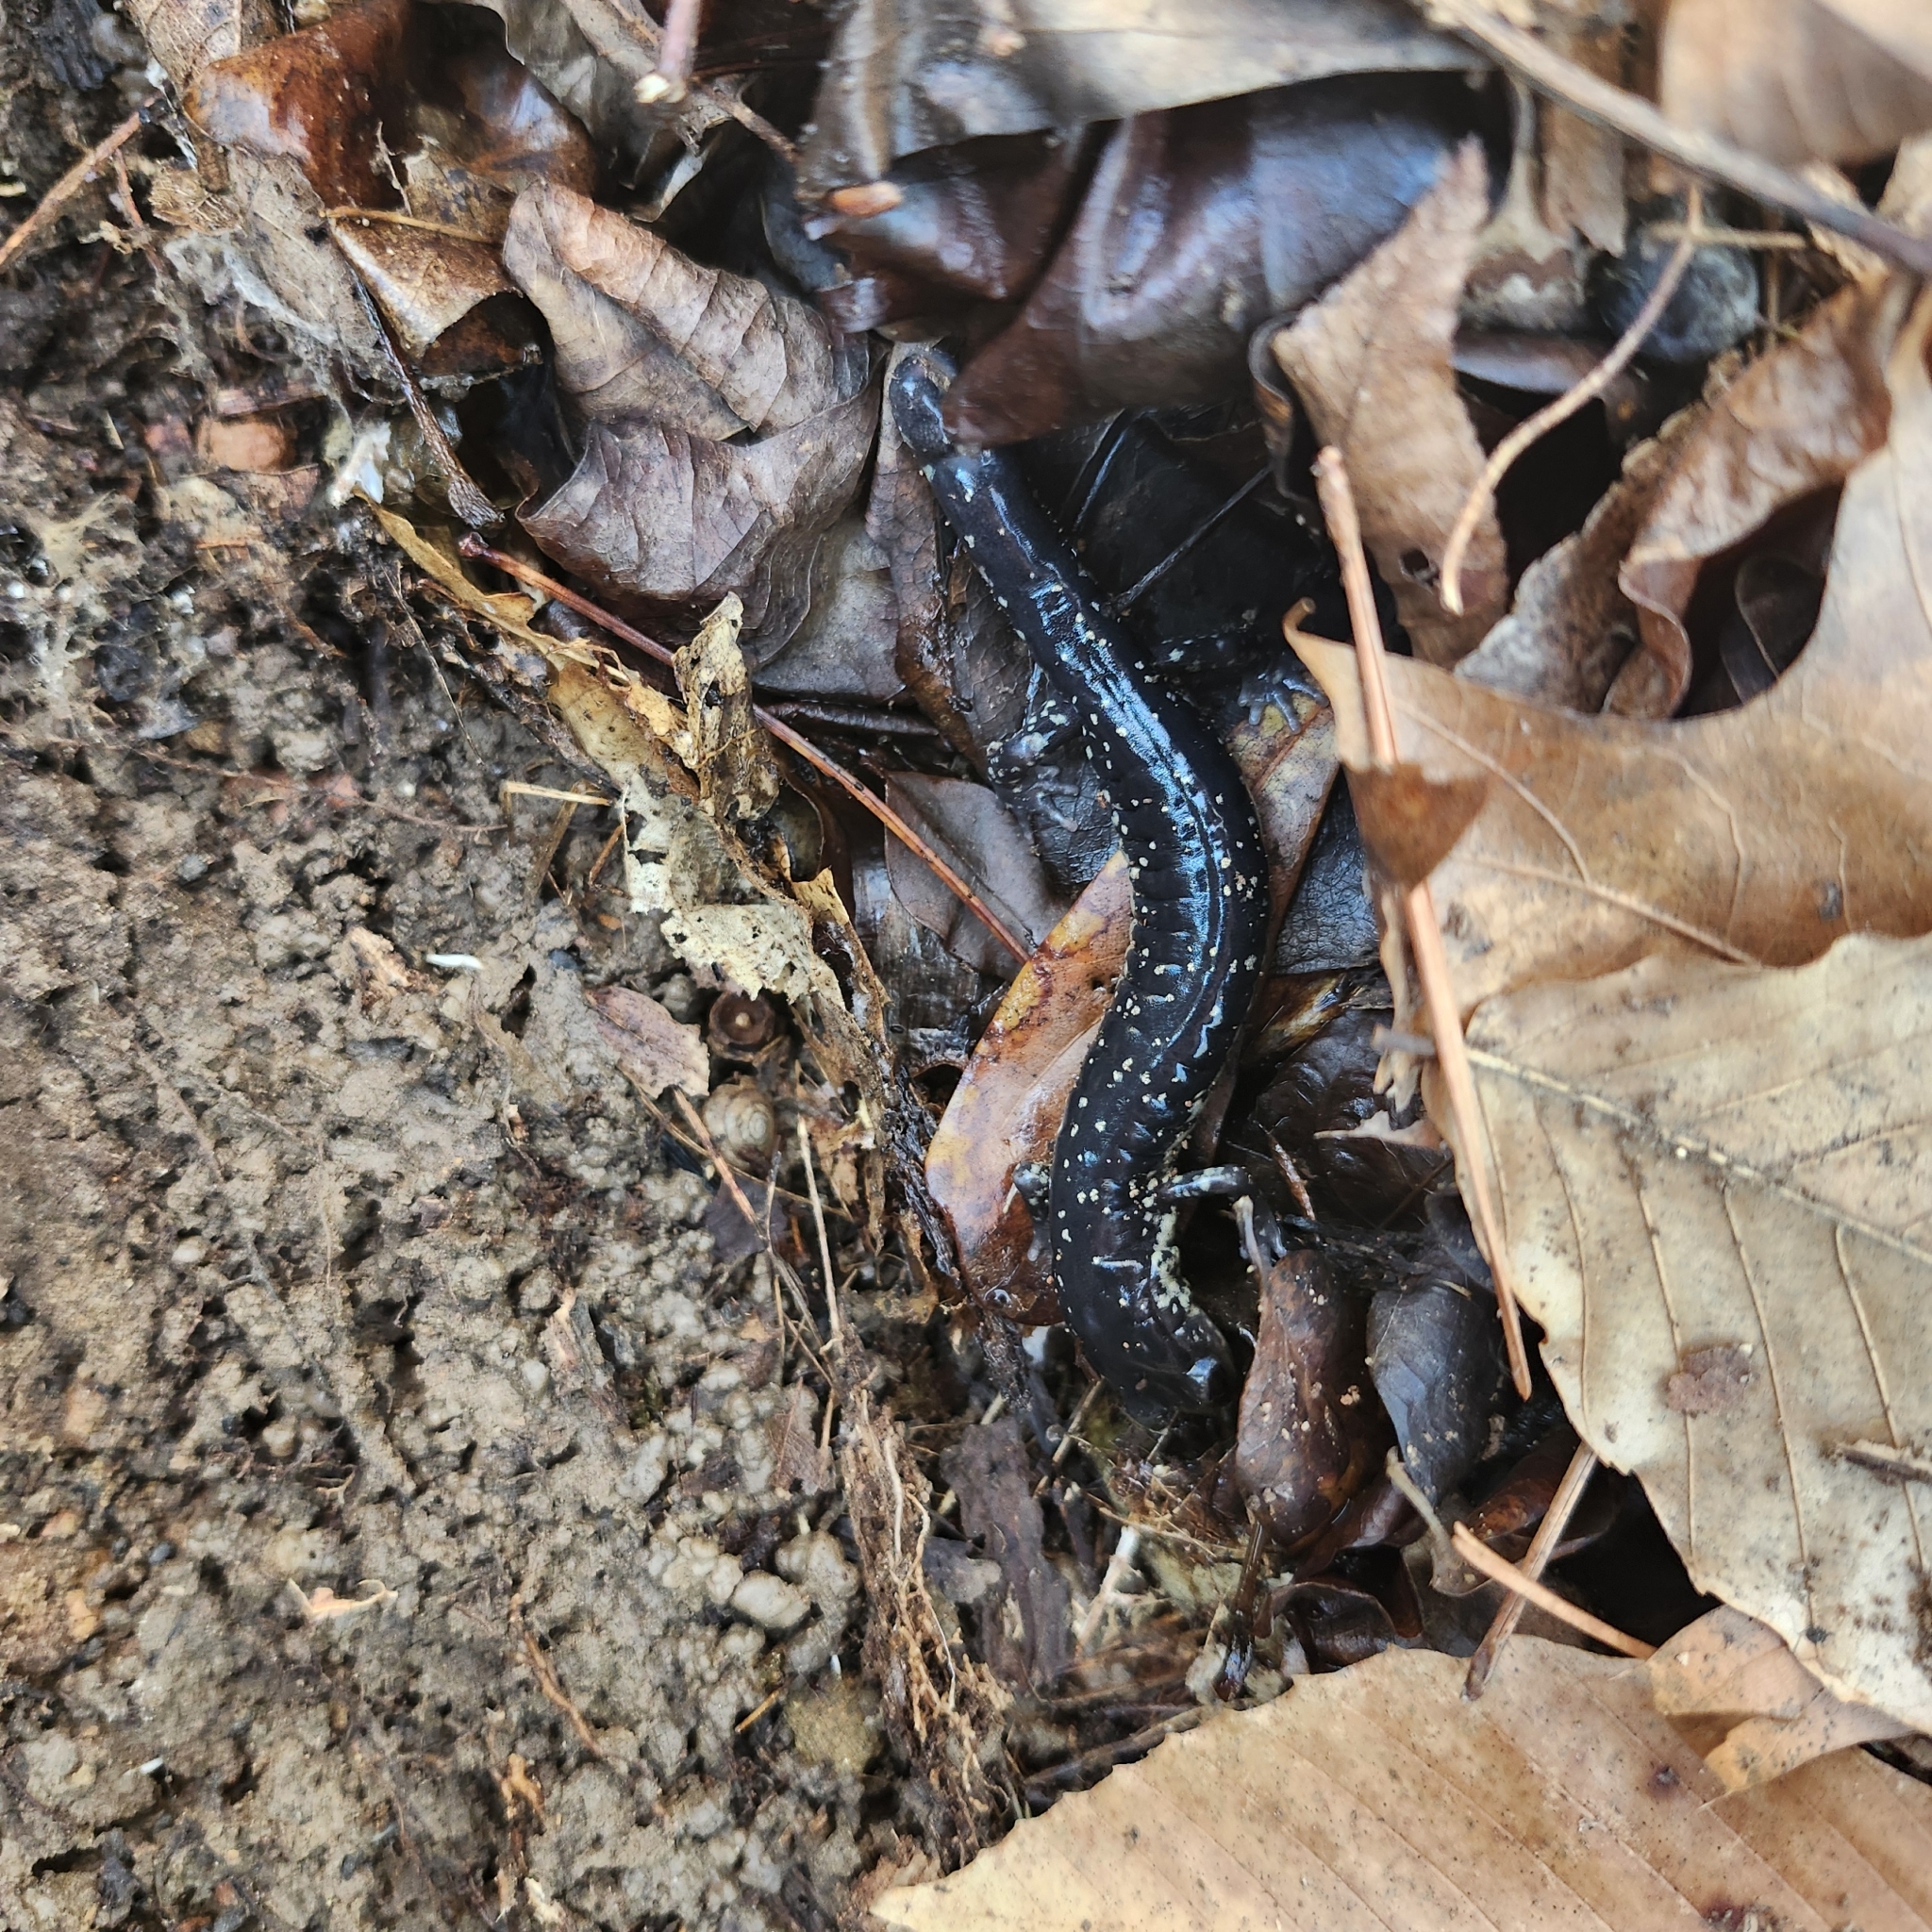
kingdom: Animalia
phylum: Chordata
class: Amphibia
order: Caudata
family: Plethodontidae
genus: Plethodon
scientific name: Plethodon glutinosus
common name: Northern slimy salamander
